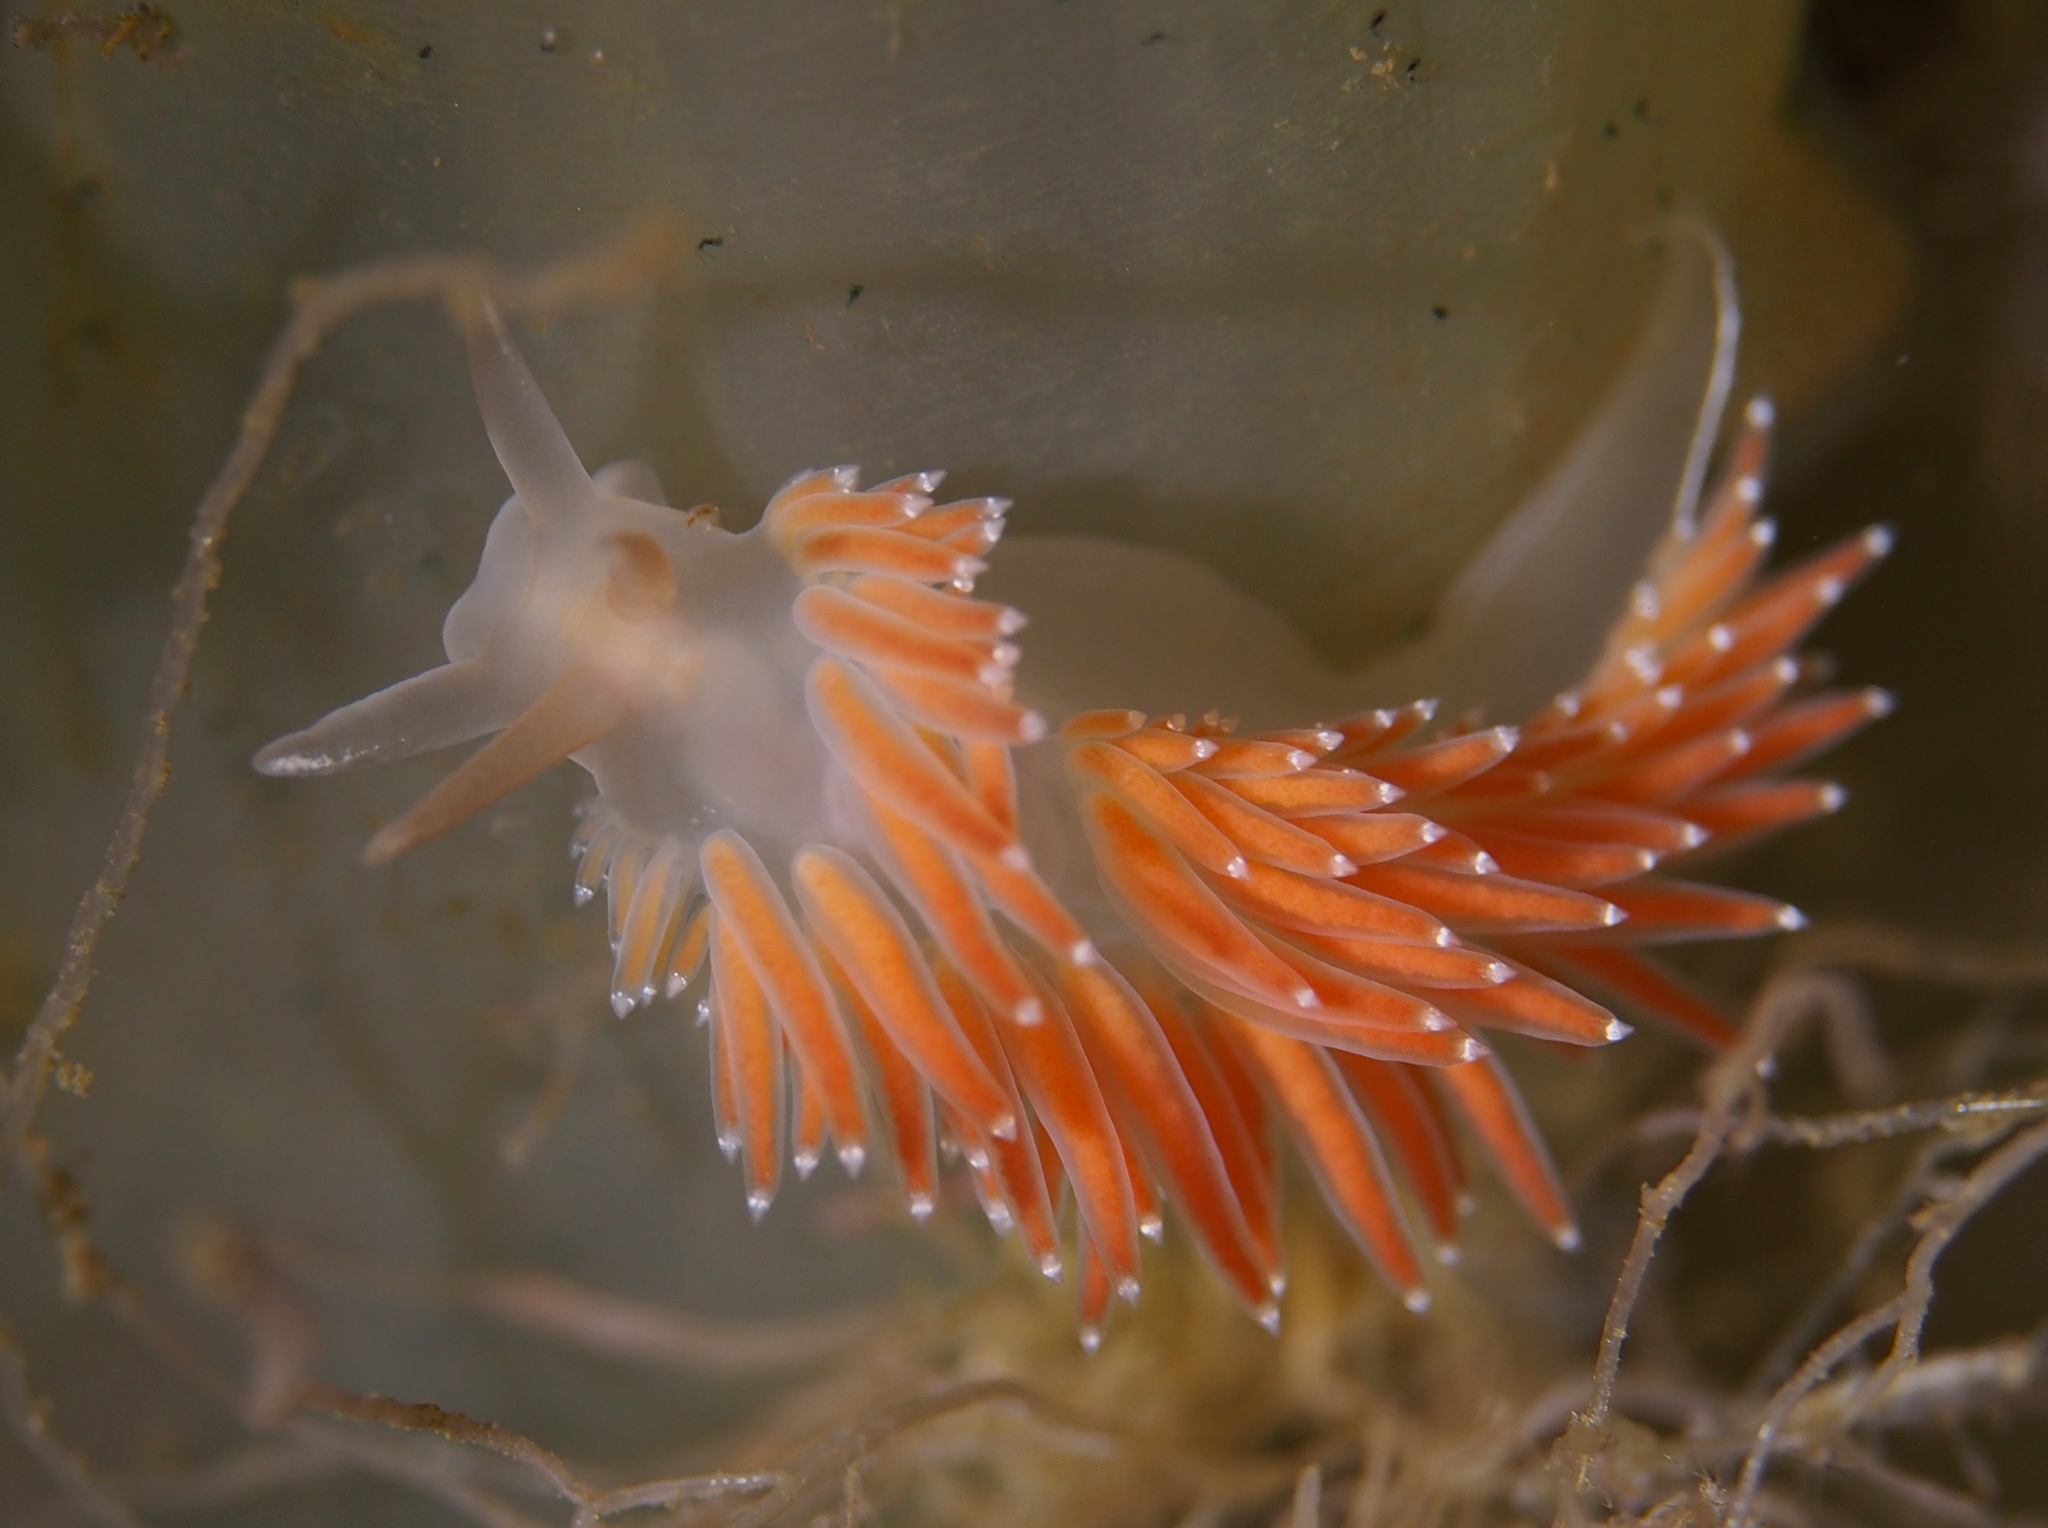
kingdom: Animalia
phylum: Mollusca
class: Gastropoda
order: Nudibranchia
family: Coryphellidae
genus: Coryphella
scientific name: Coryphella verrucosa
